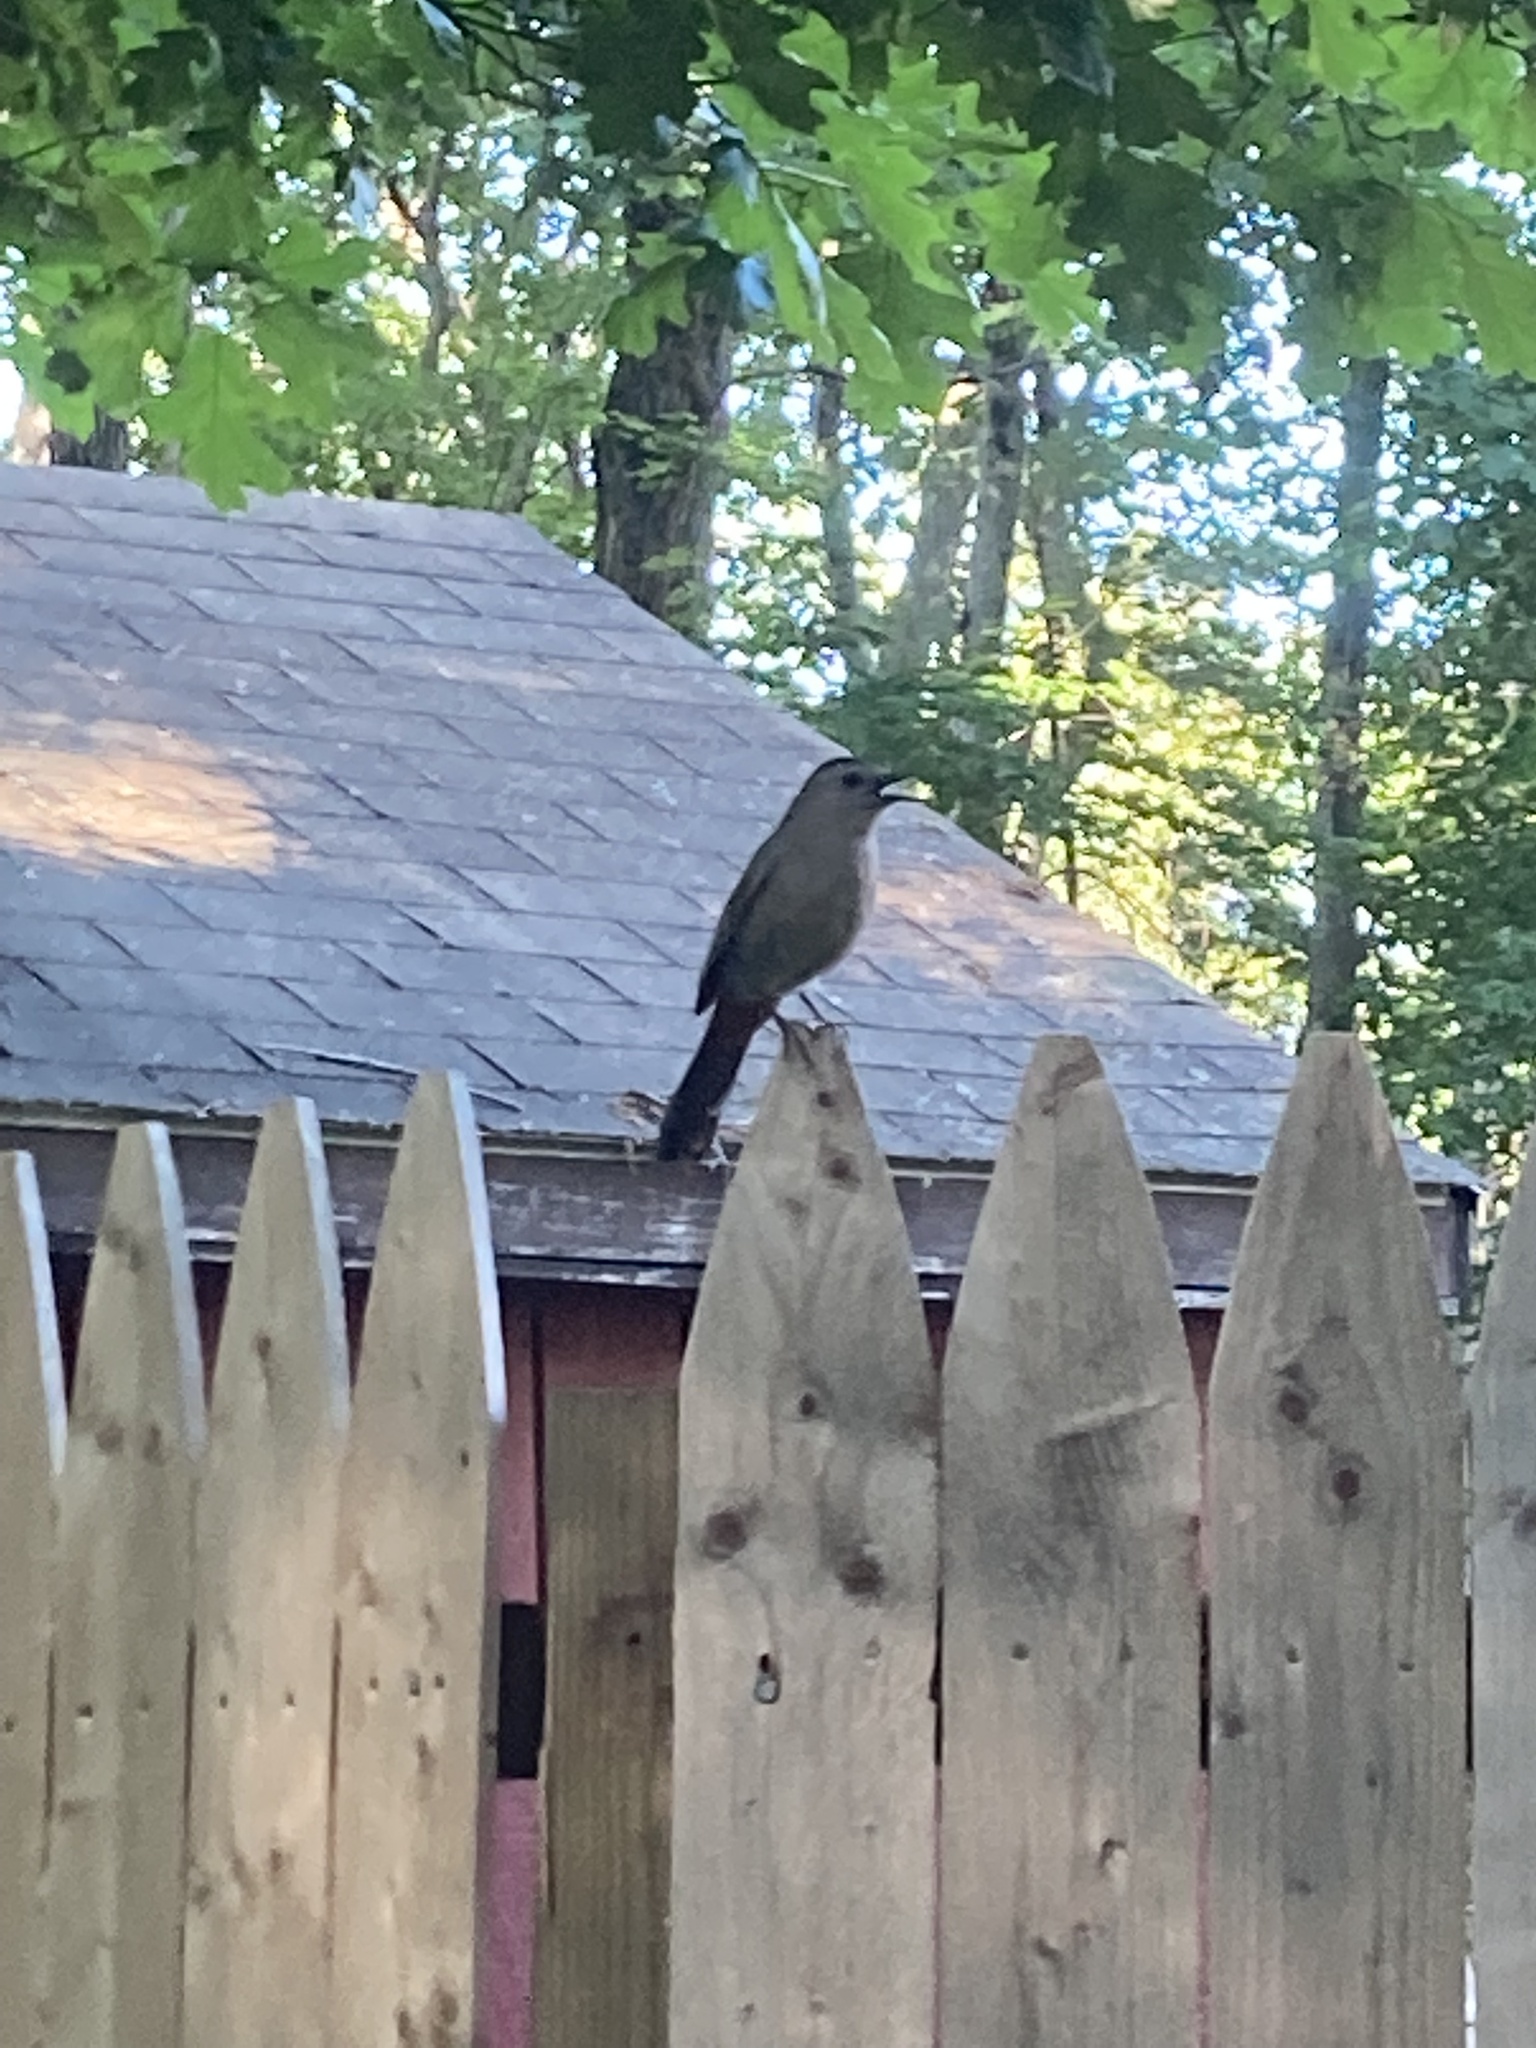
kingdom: Animalia
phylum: Chordata
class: Aves
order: Passeriformes
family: Mimidae
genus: Dumetella
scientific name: Dumetella carolinensis
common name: Gray catbird
